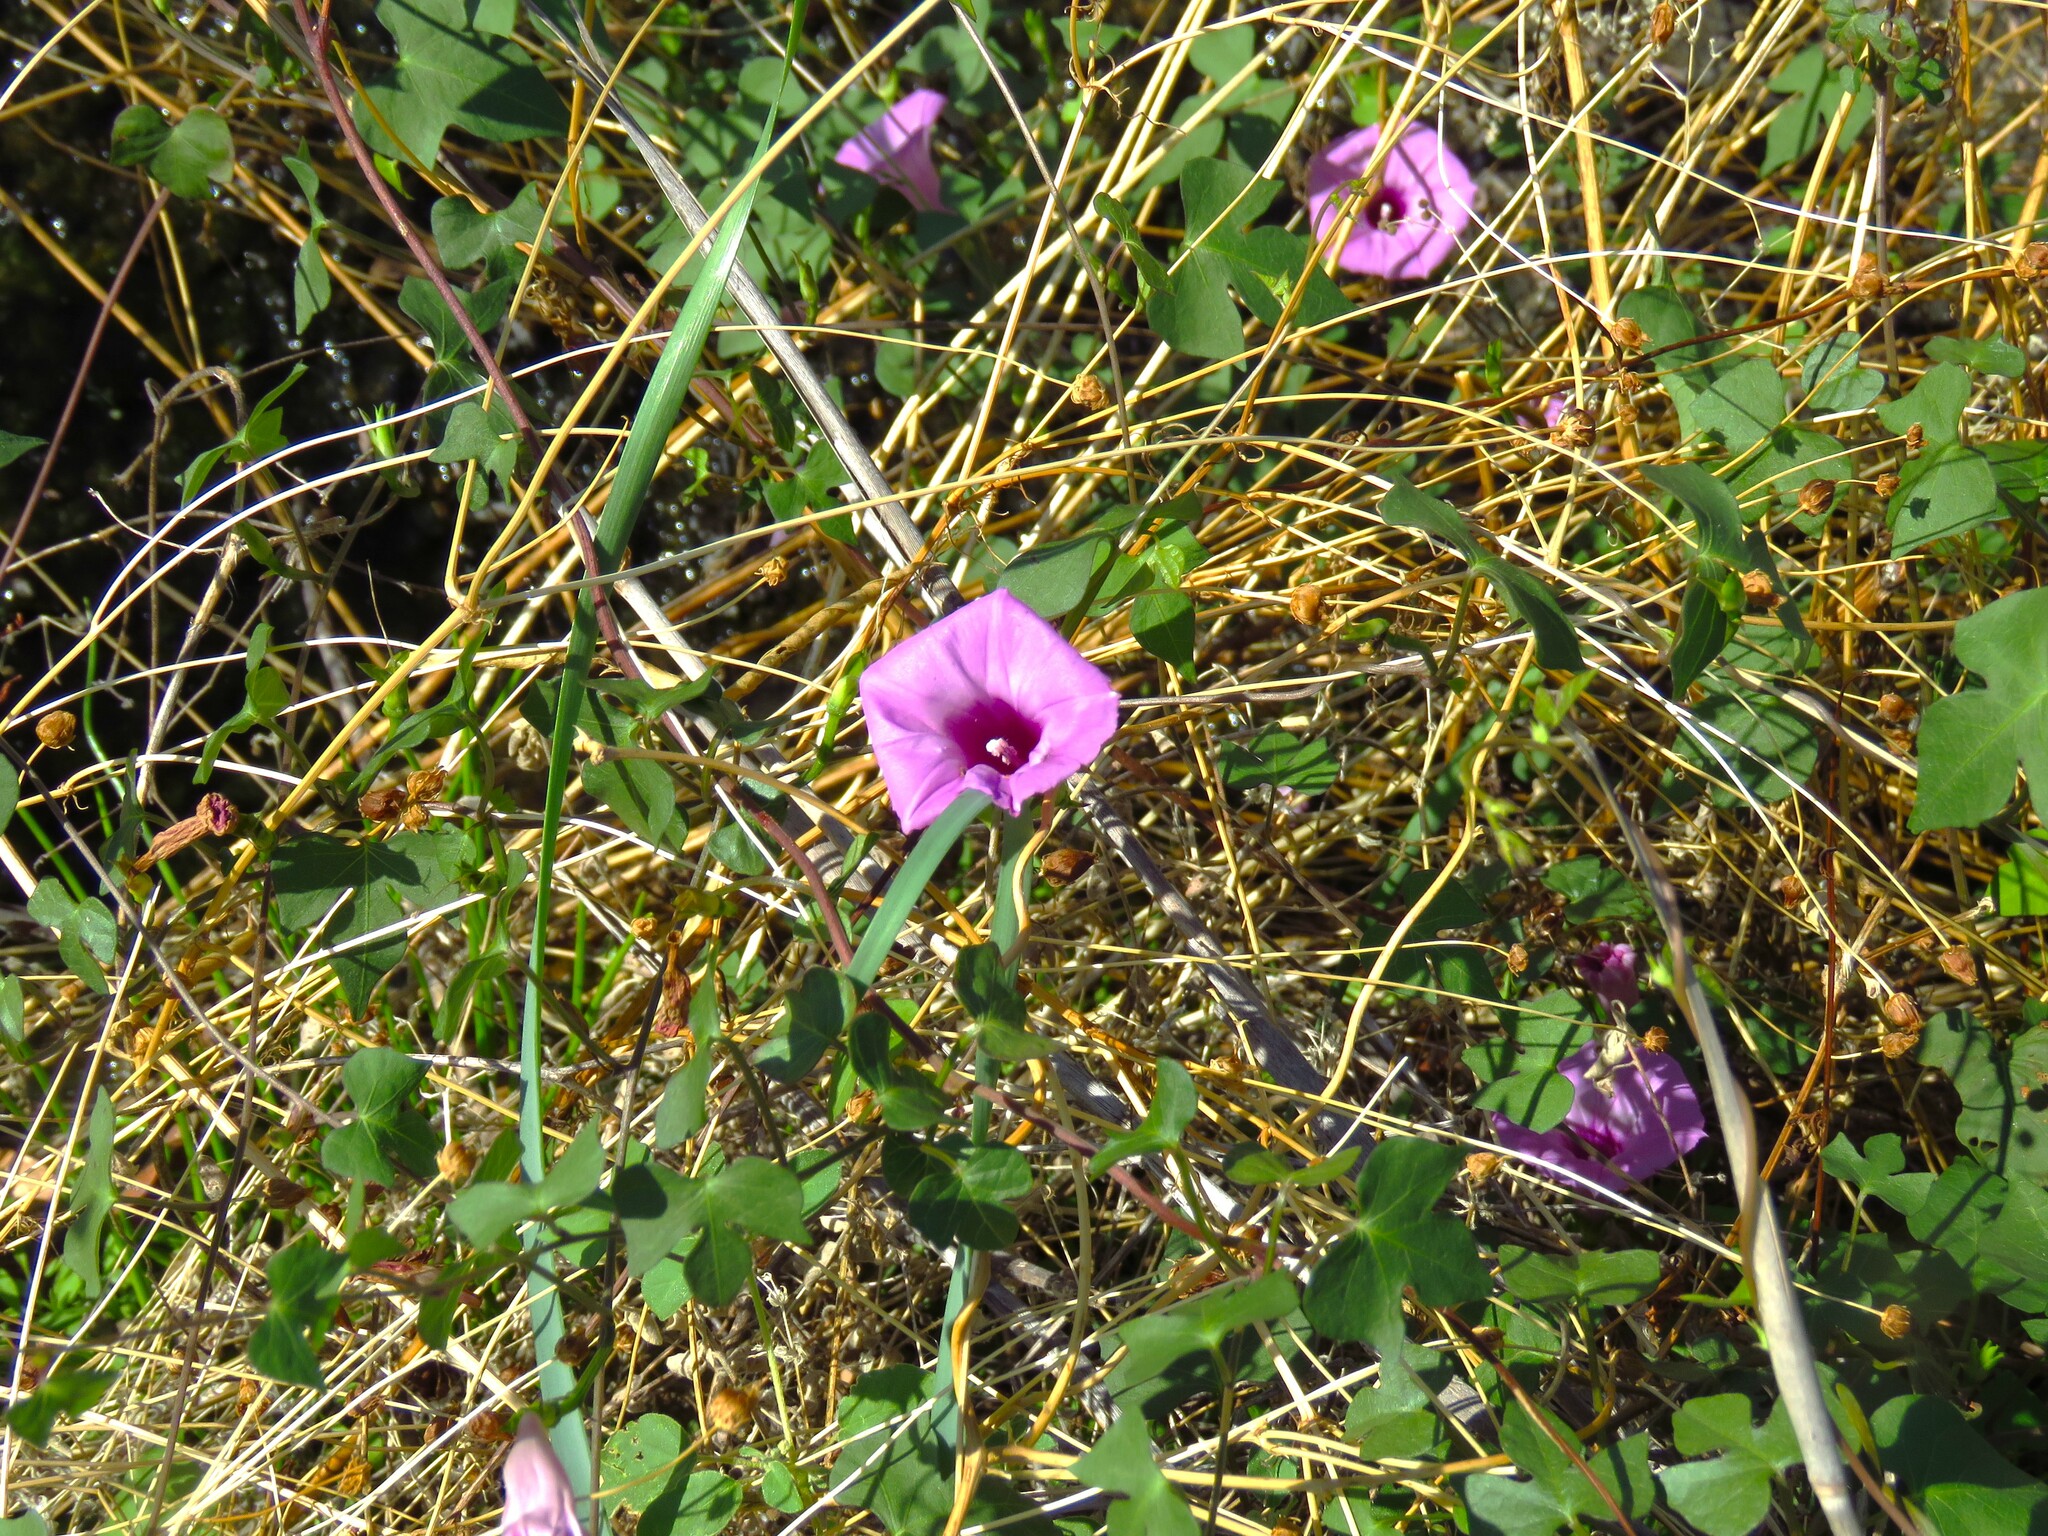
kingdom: Plantae
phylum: Tracheophyta
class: Magnoliopsida
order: Solanales
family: Convolvulaceae
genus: Ipomoea
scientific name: Ipomoea cordatotriloba
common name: Cotton morning glory
